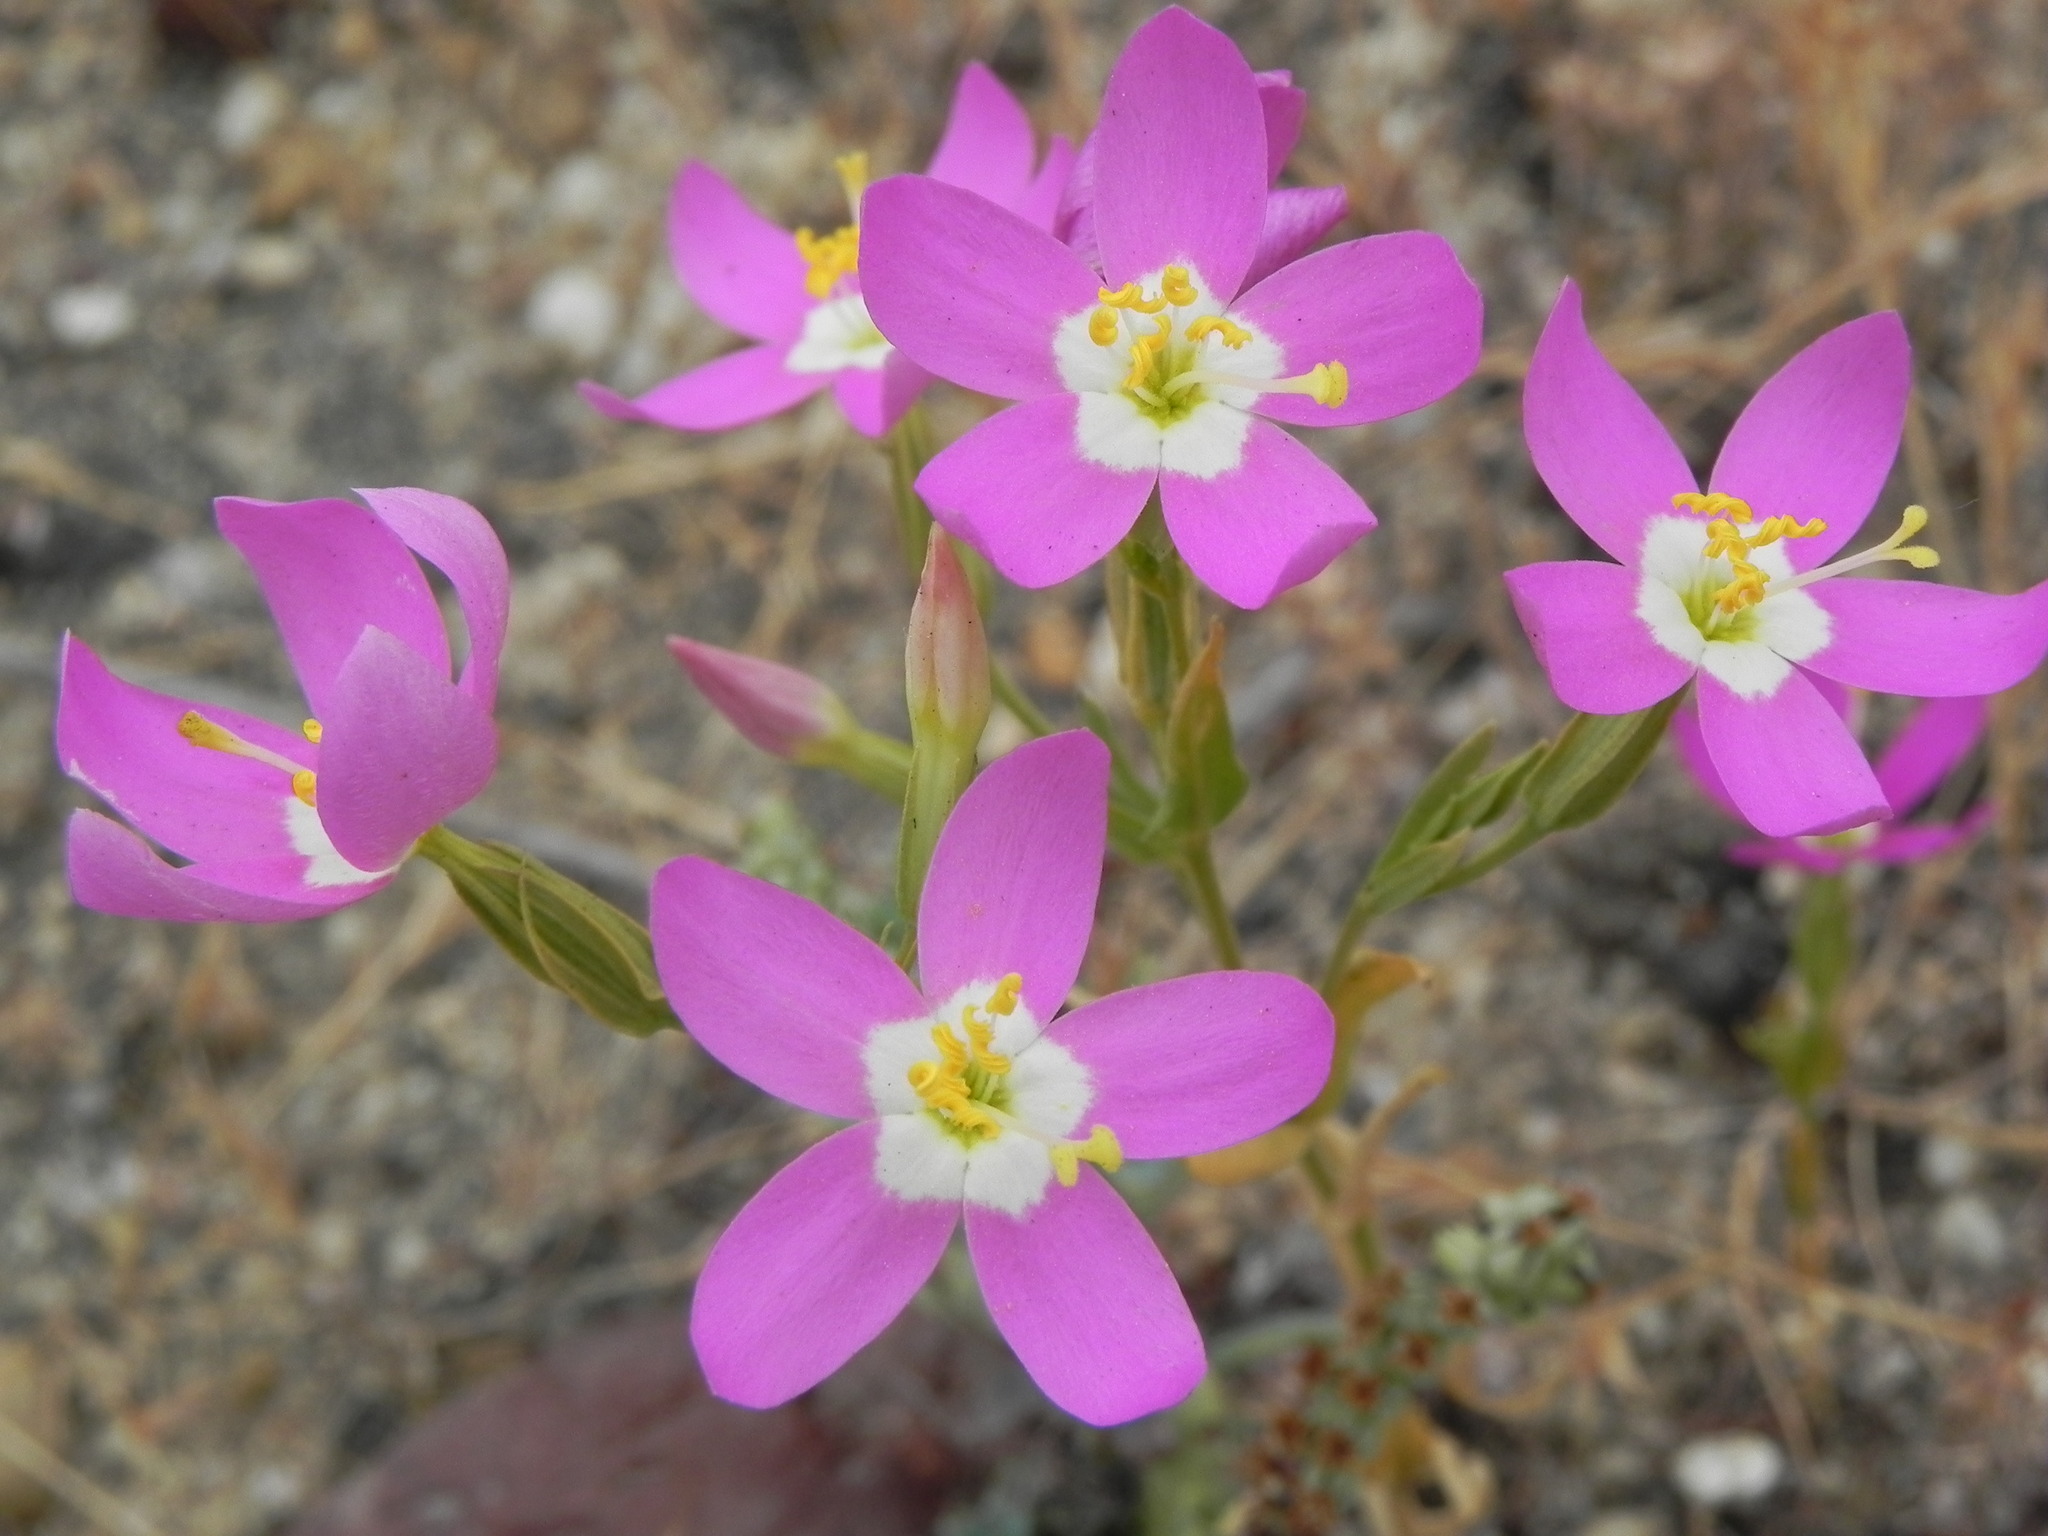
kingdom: Plantae
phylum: Tracheophyta
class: Magnoliopsida
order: Gentianales
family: Gentianaceae
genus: Zeltnera
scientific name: Zeltnera venusta
